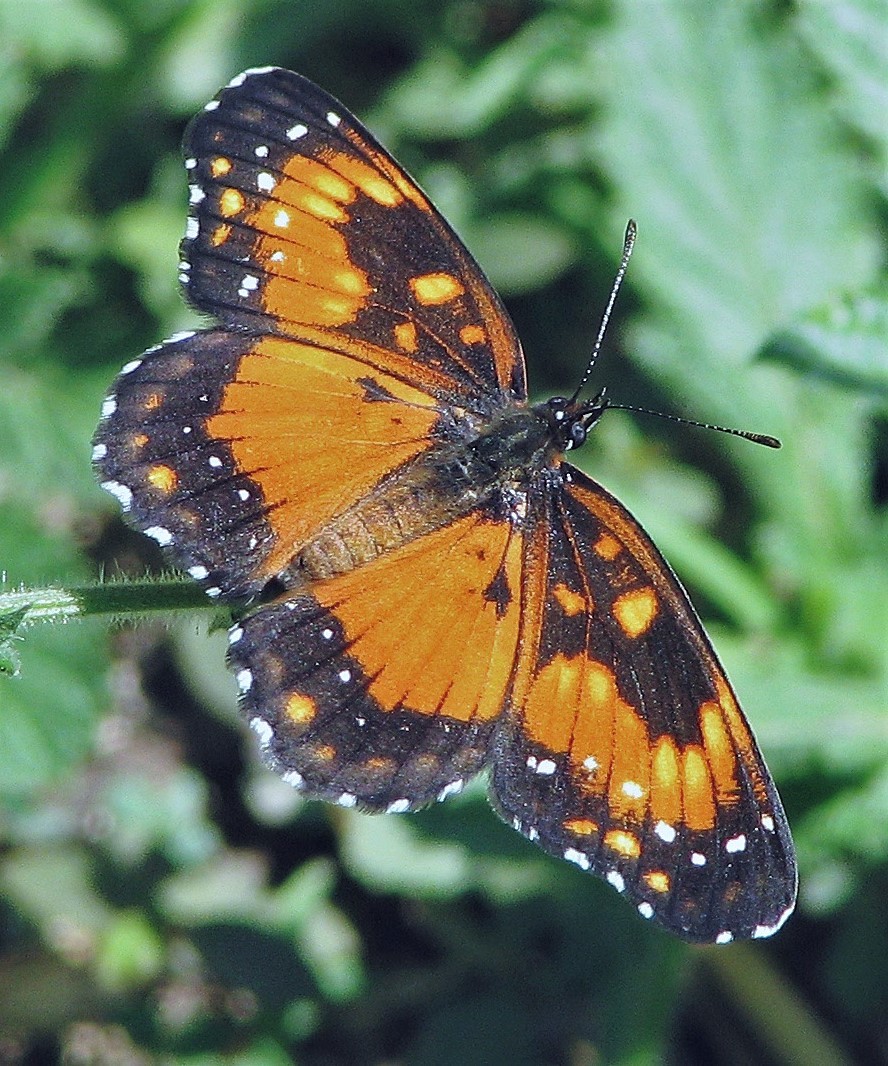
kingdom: Animalia
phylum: Arthropoda
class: Insecta
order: Lepidoptera
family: Nymphalidae
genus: Chlosyne
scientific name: Chlosyne lacinia
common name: Bordered patch
